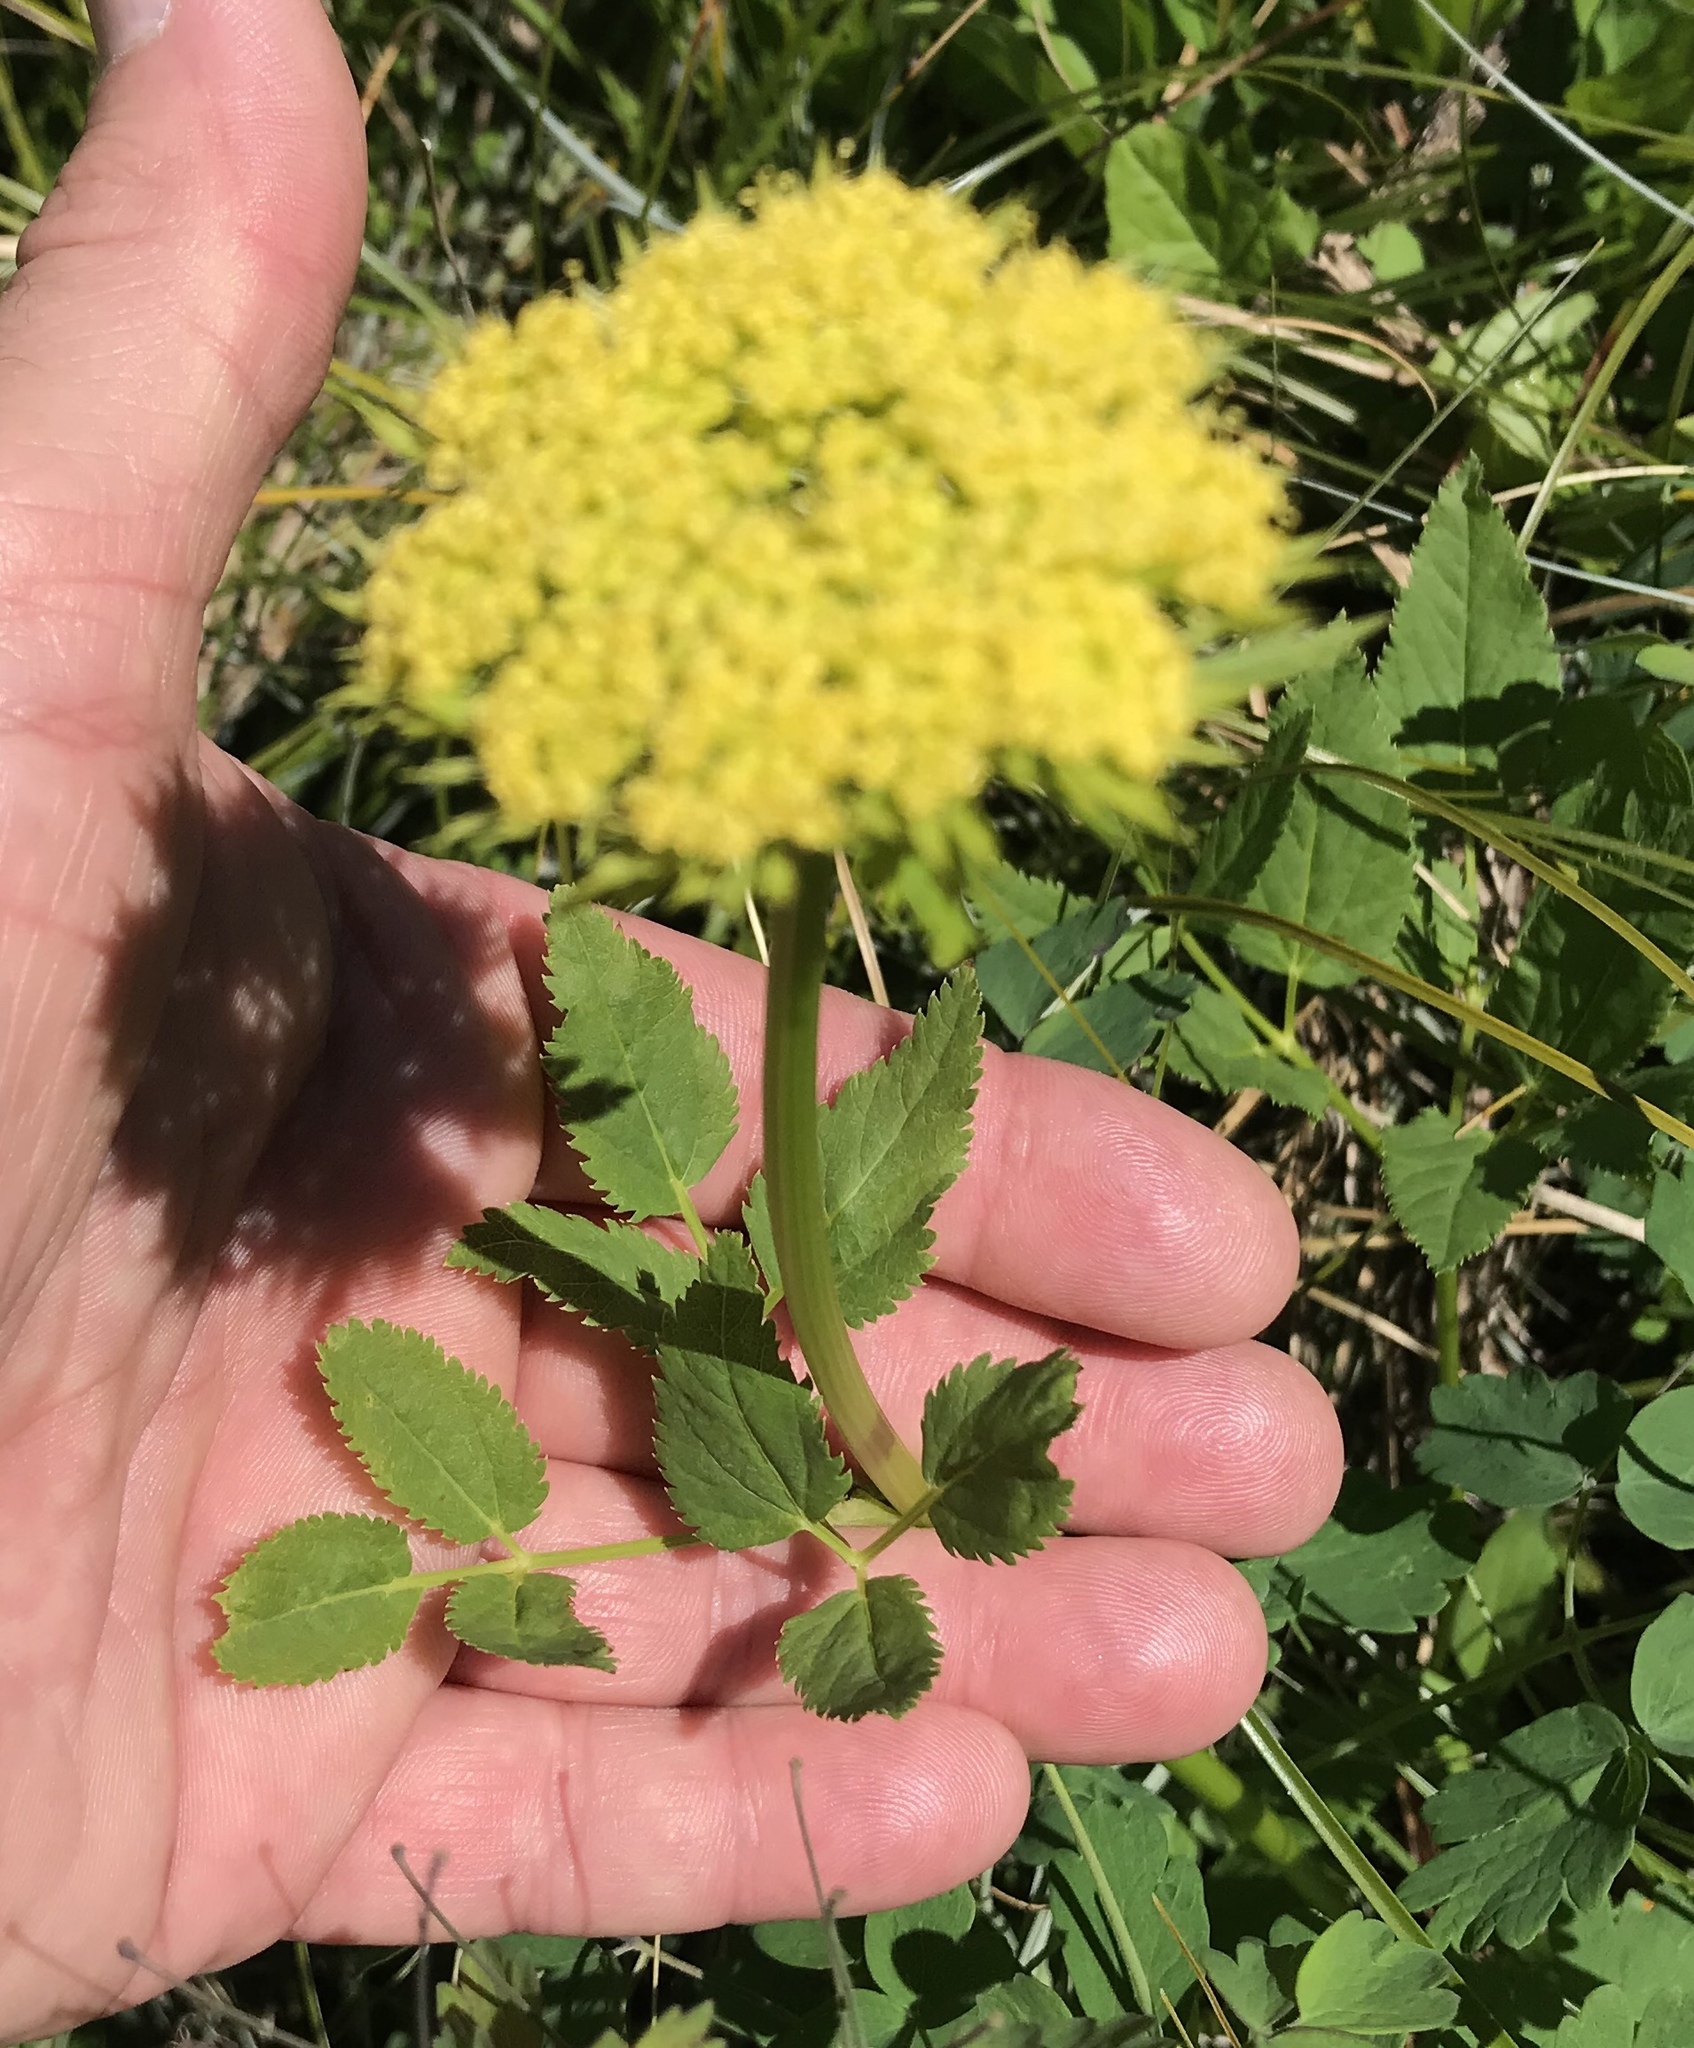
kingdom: Plantae
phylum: Tracheophyta
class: Magnoliopsida
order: Apiales
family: Apiaceae
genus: Zizia
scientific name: Zizia aptera
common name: Heart-leaved alexanders
